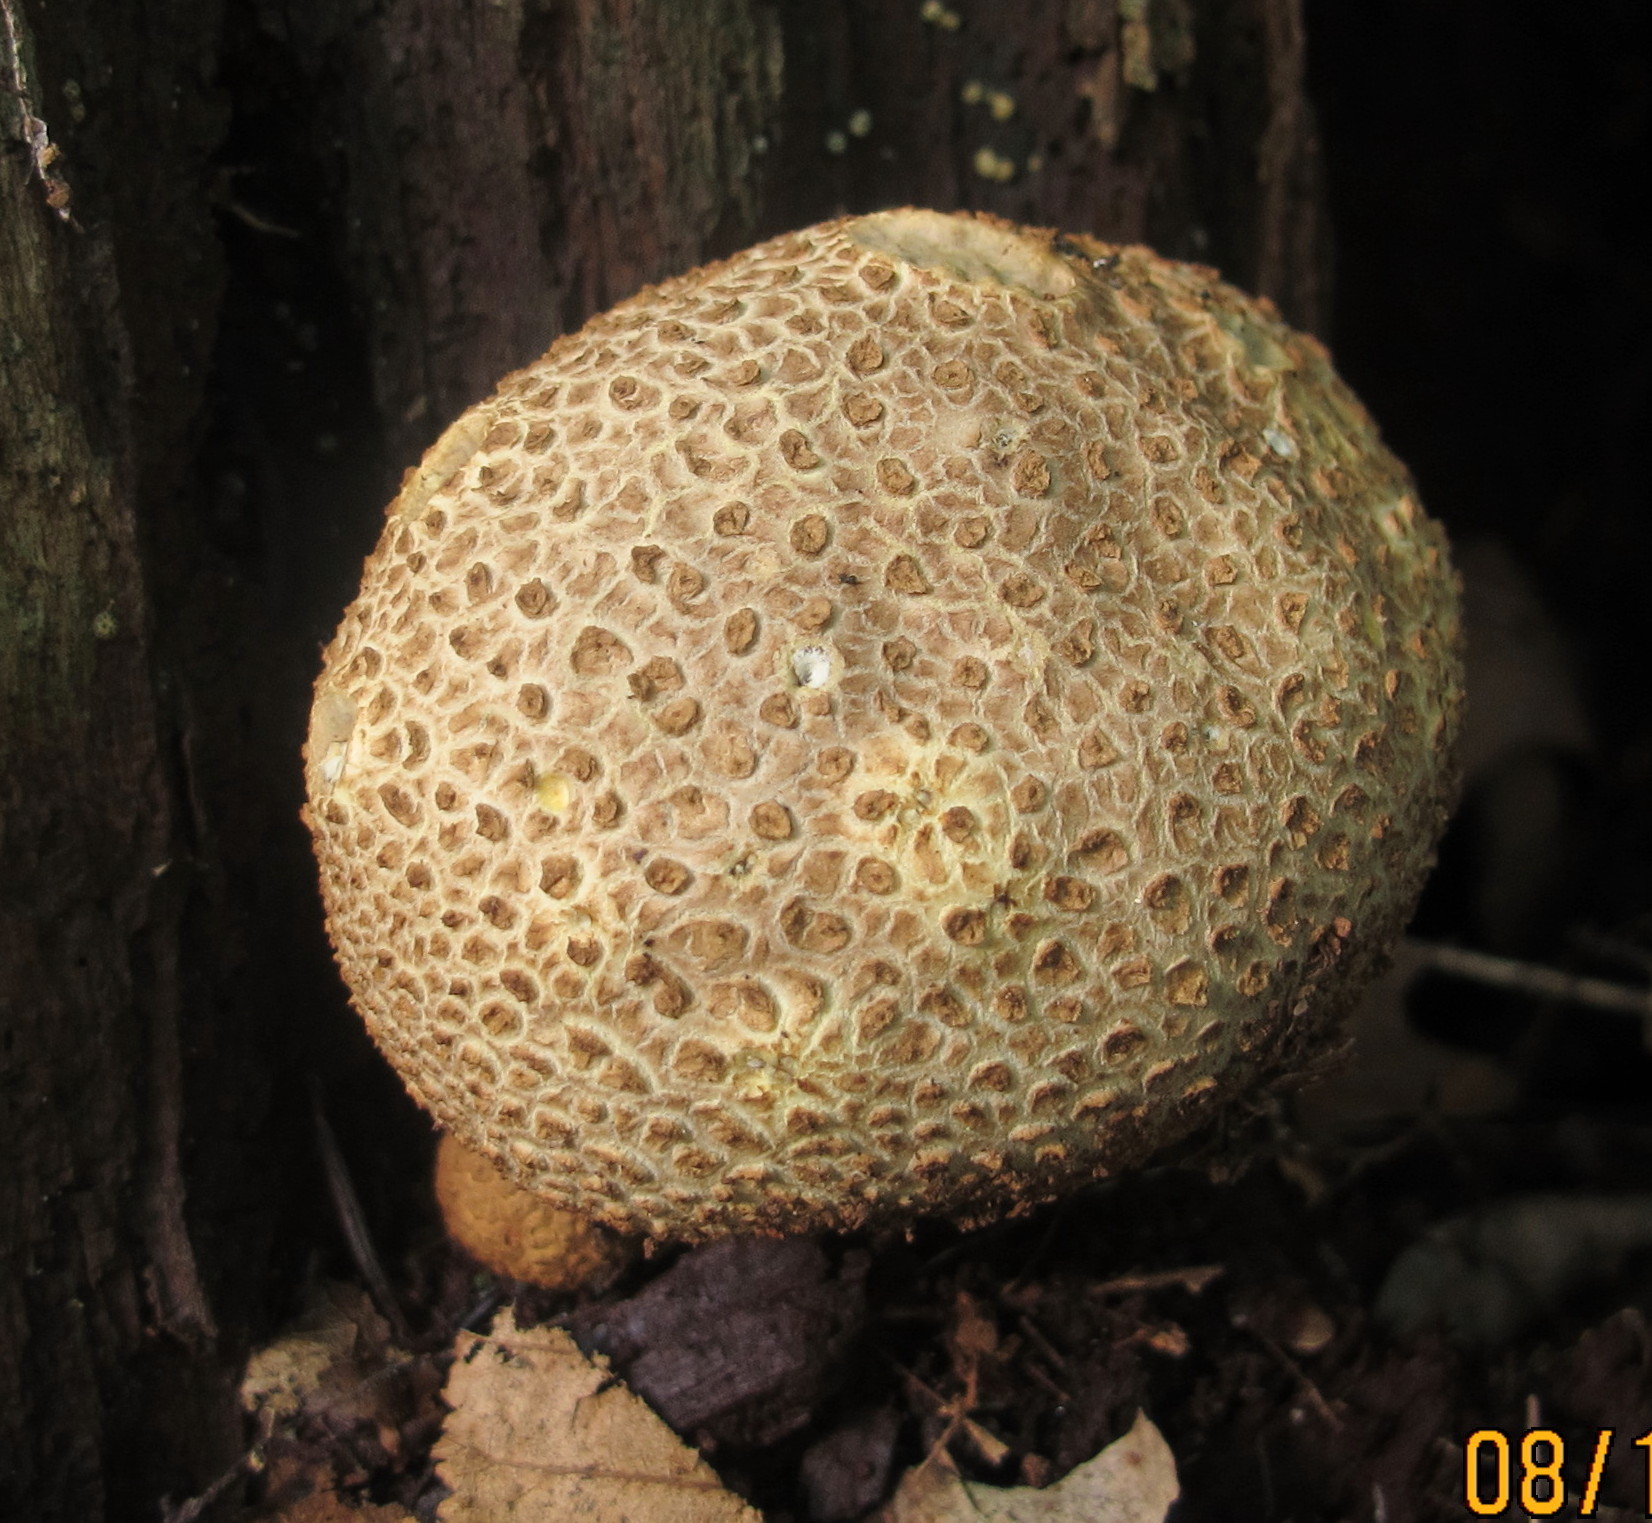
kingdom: Fungi
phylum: Basidiomycota
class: Agaricomycetes
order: Boletales
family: Sclerodermataceae
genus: Scleroderma
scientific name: Scleroderma citrinum
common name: Common earthball
